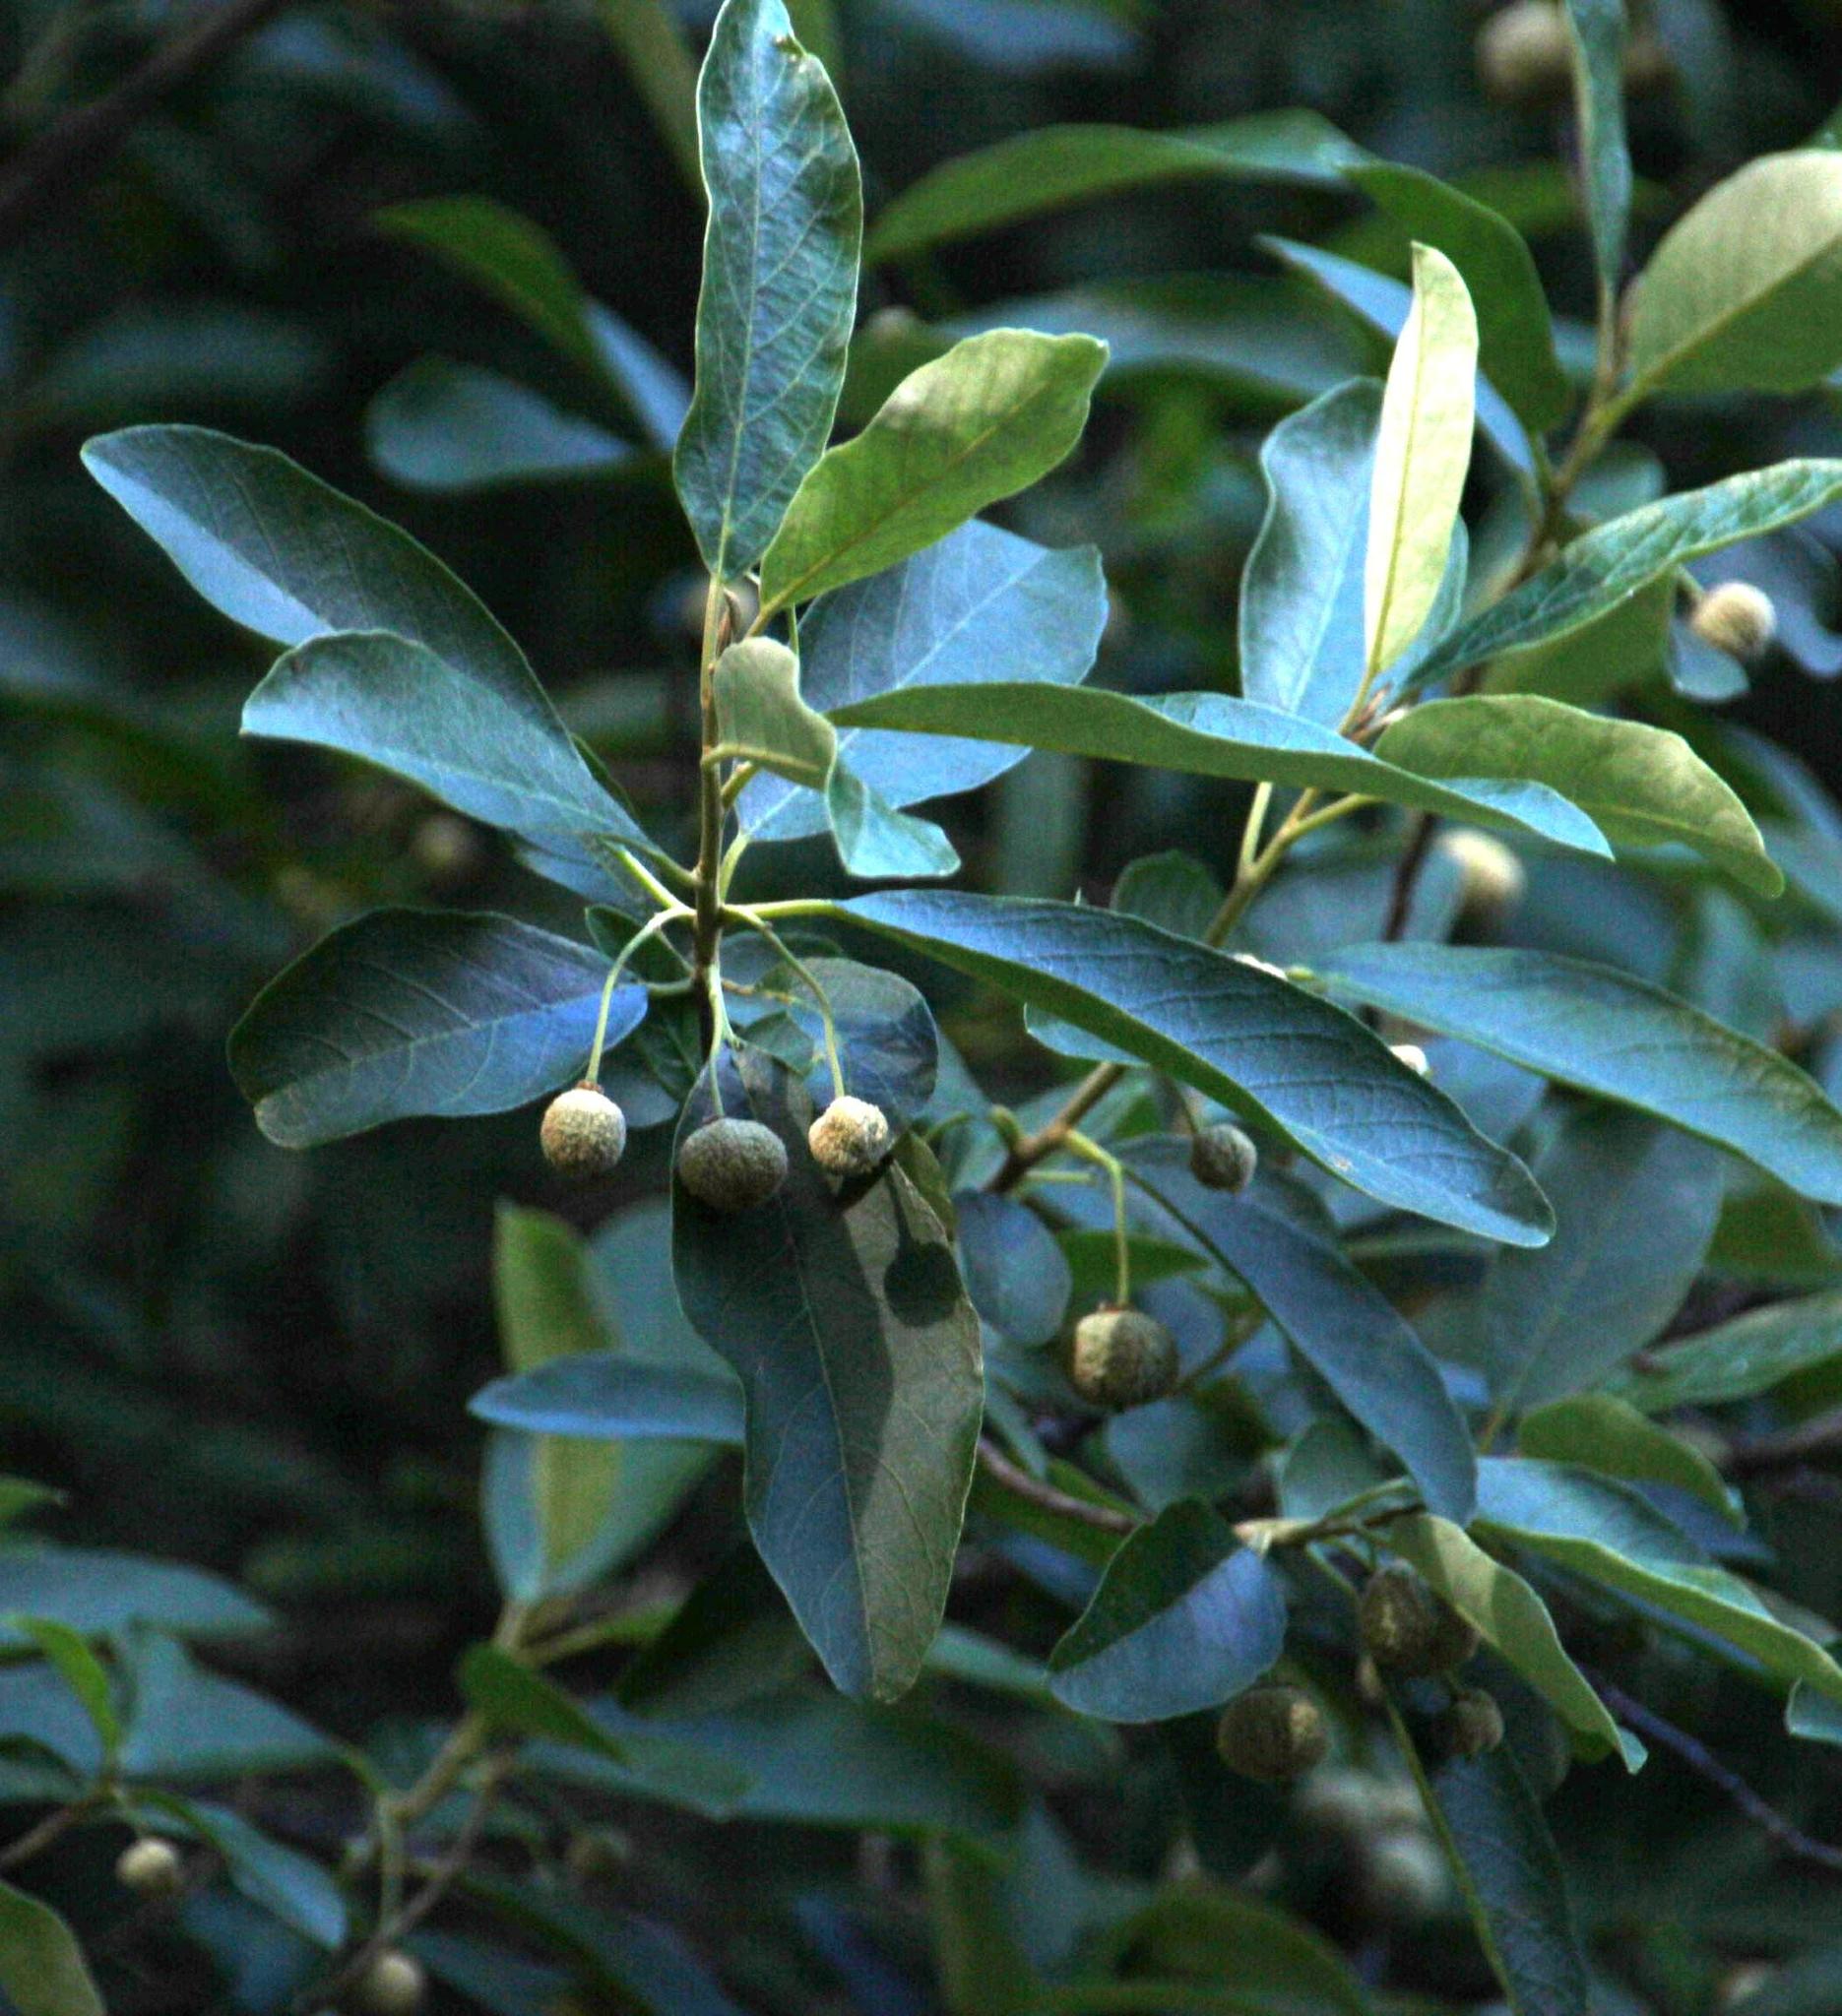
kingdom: Plantae
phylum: Tracheophyta
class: Magnoliopsida
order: Malpighiales
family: Achariaceae
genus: Kiggelaria
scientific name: Kiggelaria africana
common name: Wild peach
